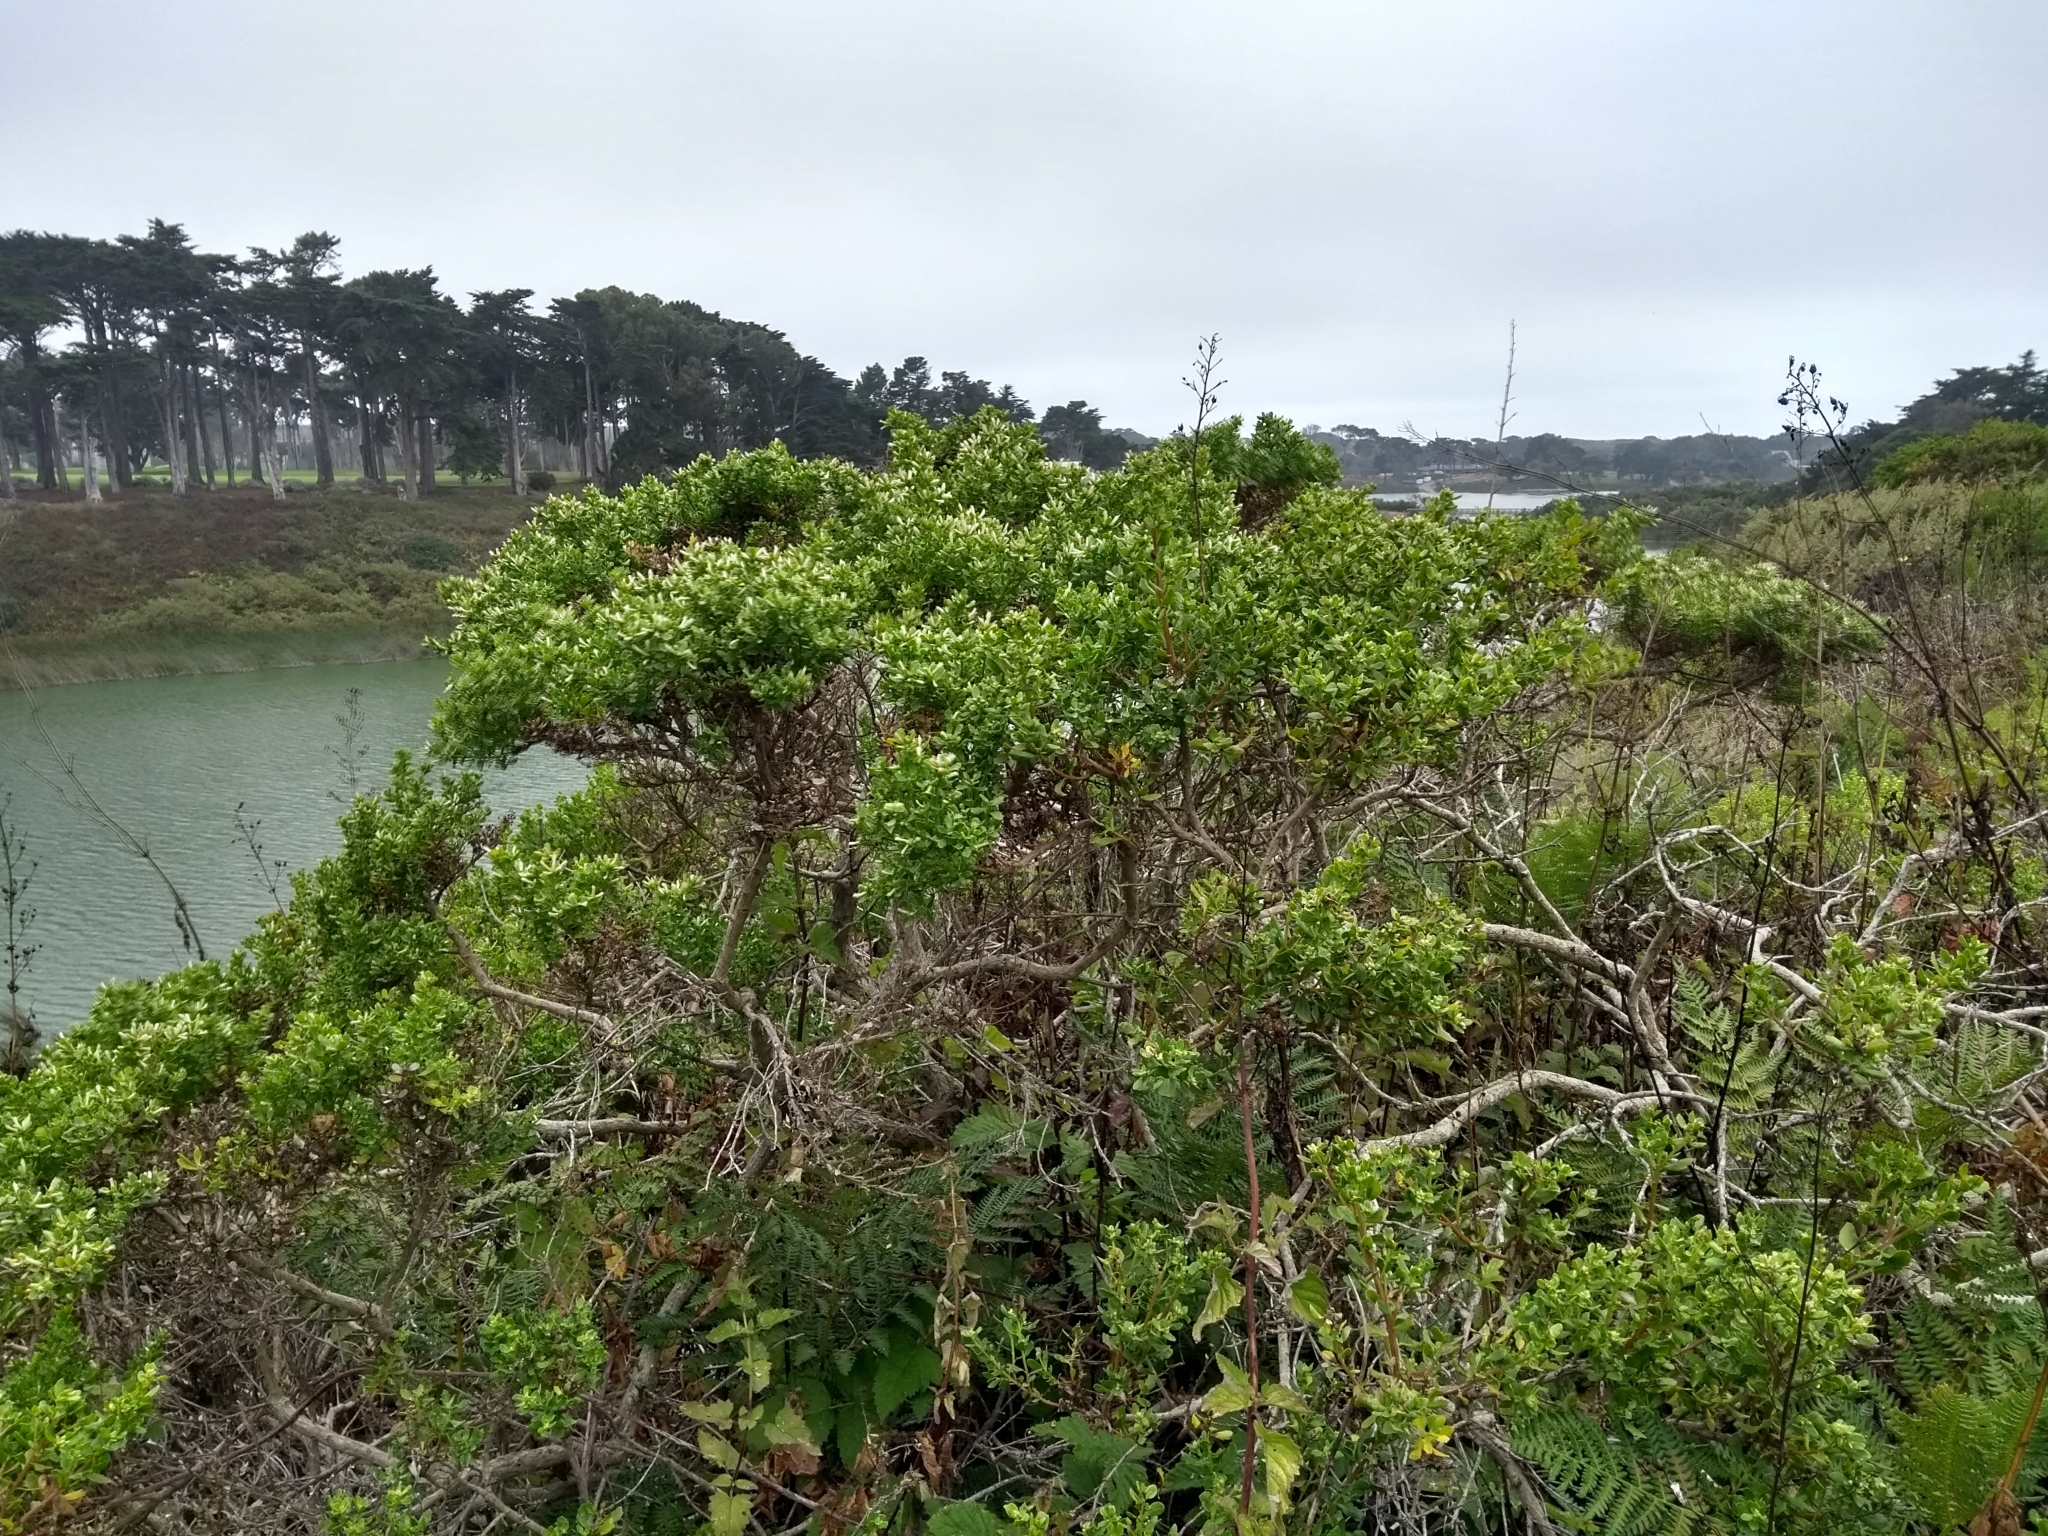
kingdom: Plantae
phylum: Tracheophyta
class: Magnoliopsida
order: Asterales
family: Asteraceae
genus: Baccharis
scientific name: Baccharis pilularis
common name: Coyotebrush
